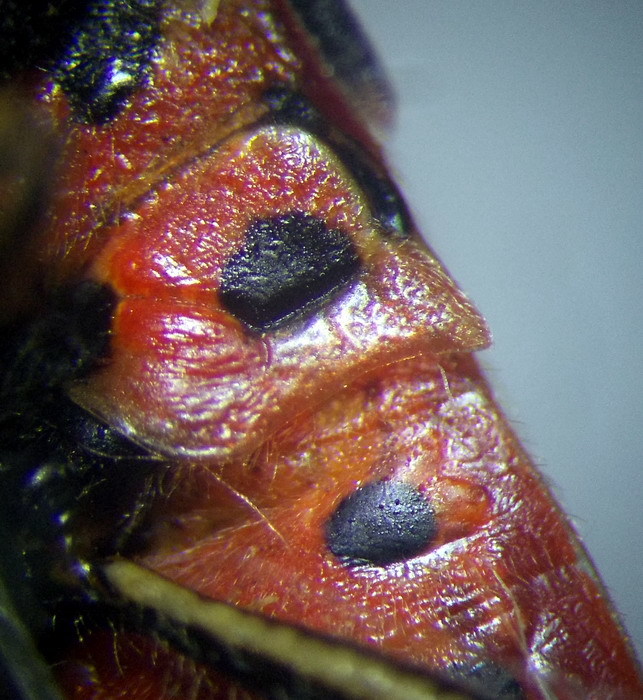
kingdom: Animalia
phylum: Arthropoda
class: Insecta
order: Hemiptera
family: Rhopalidae
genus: Corizus
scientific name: Corizus hyoscyami
